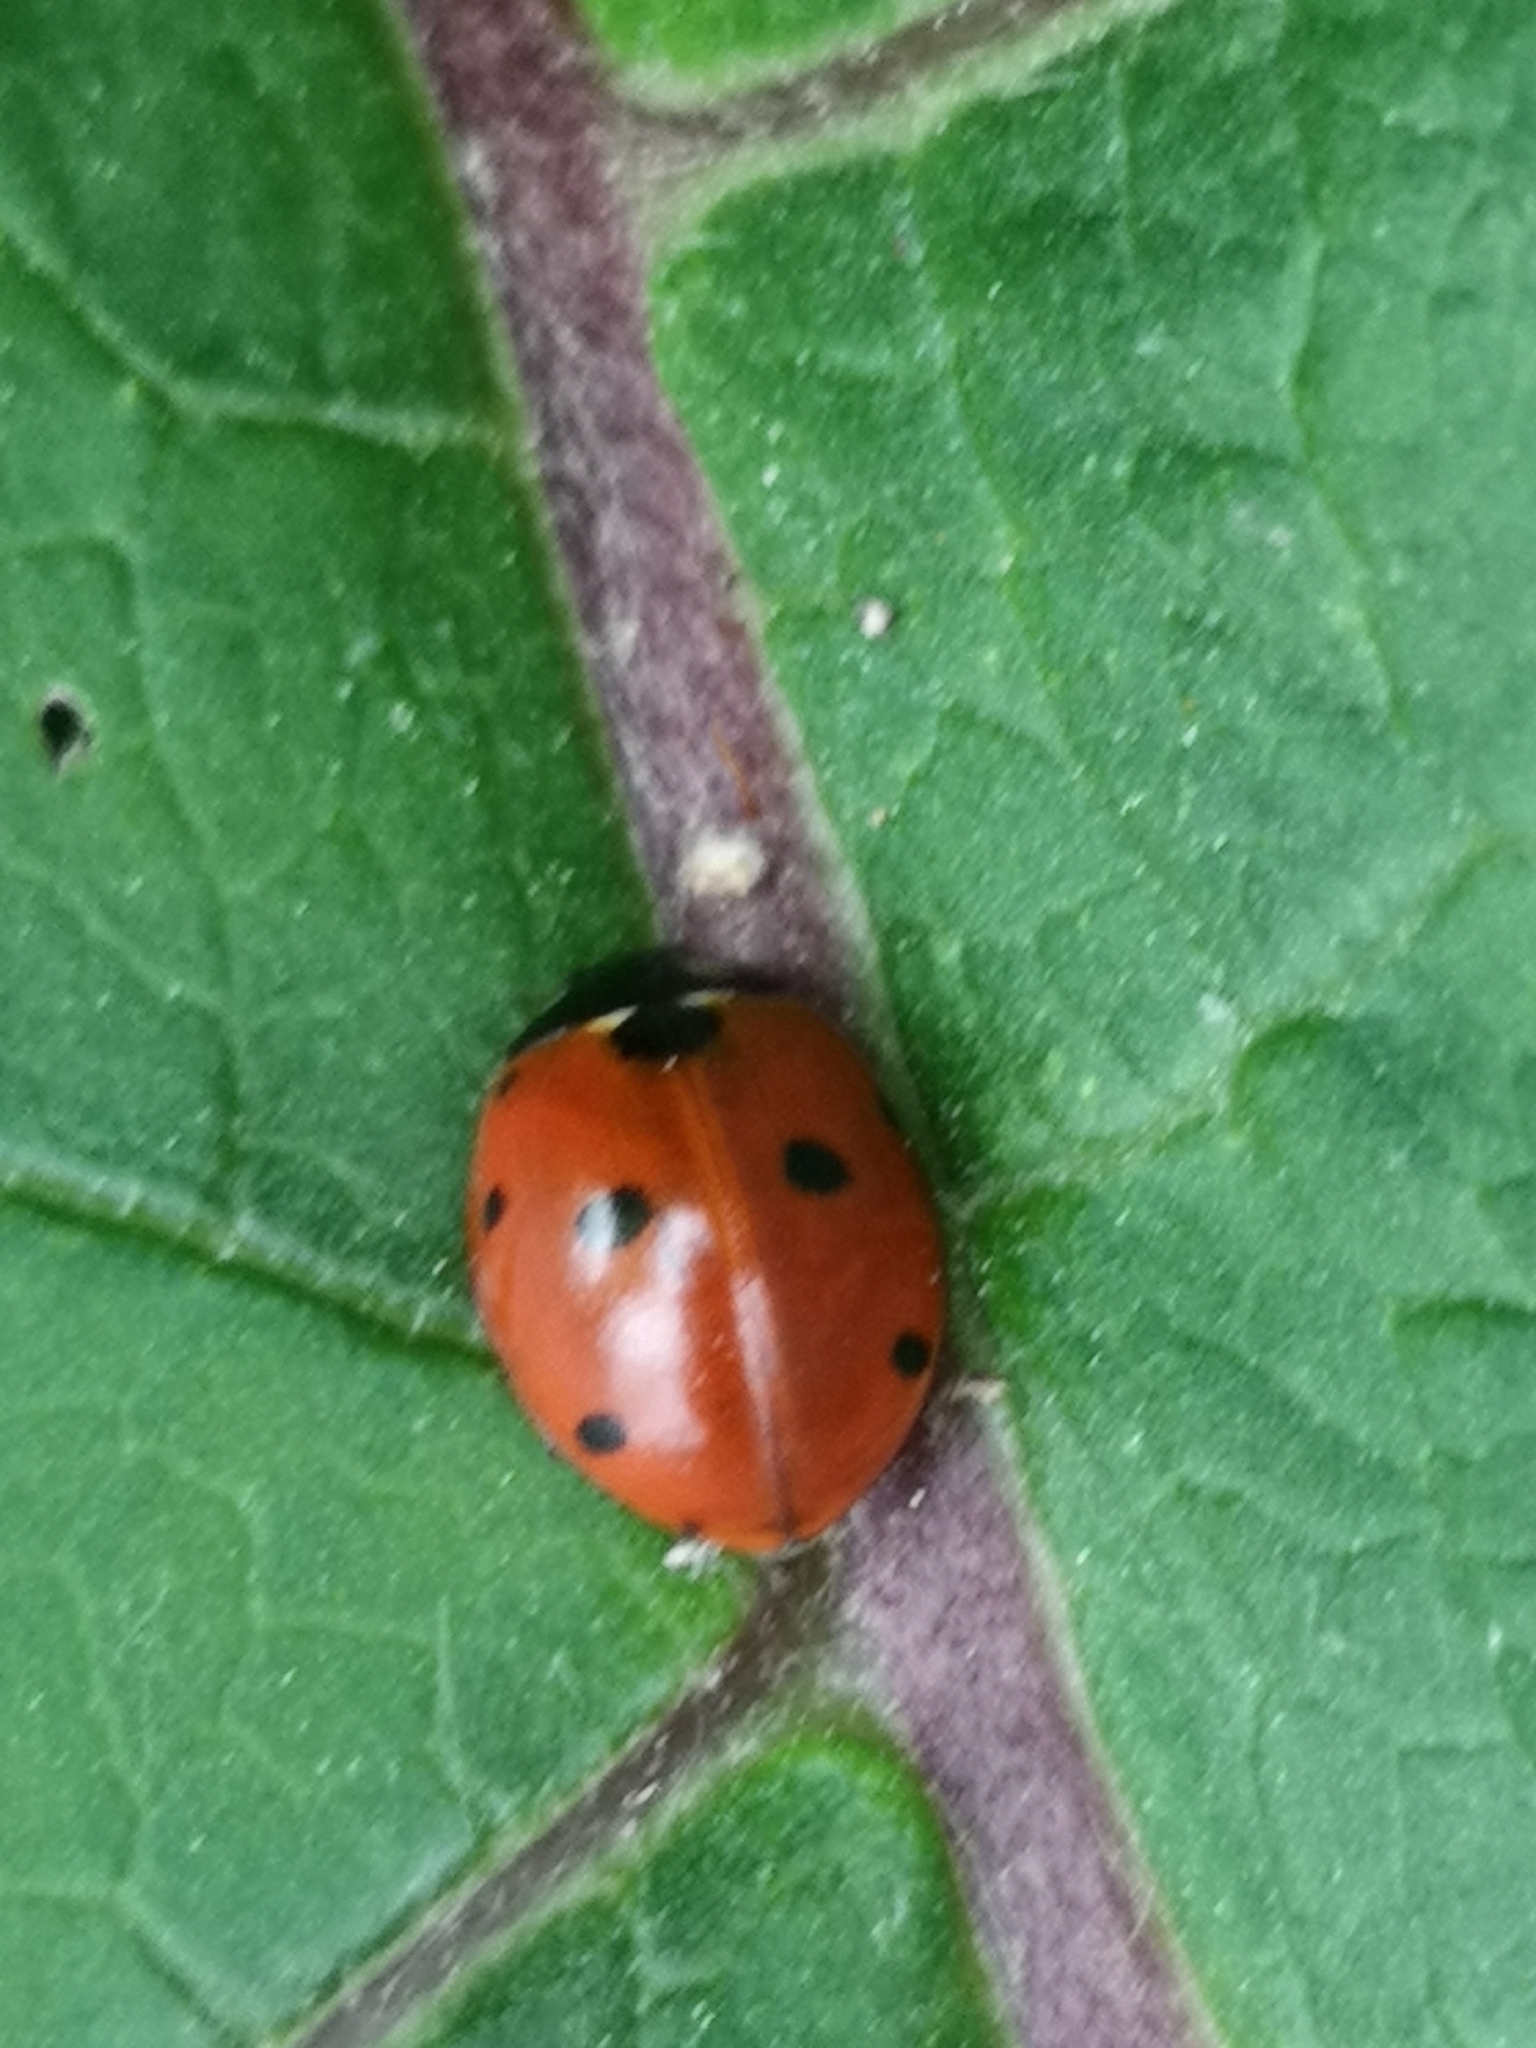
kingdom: Animalia
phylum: Arthropoda
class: Insecta
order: Coleoptera
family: Coccinellidae
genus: Coccinella
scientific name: Coccinella septempunctata
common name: Sevenspotted lady beetle
